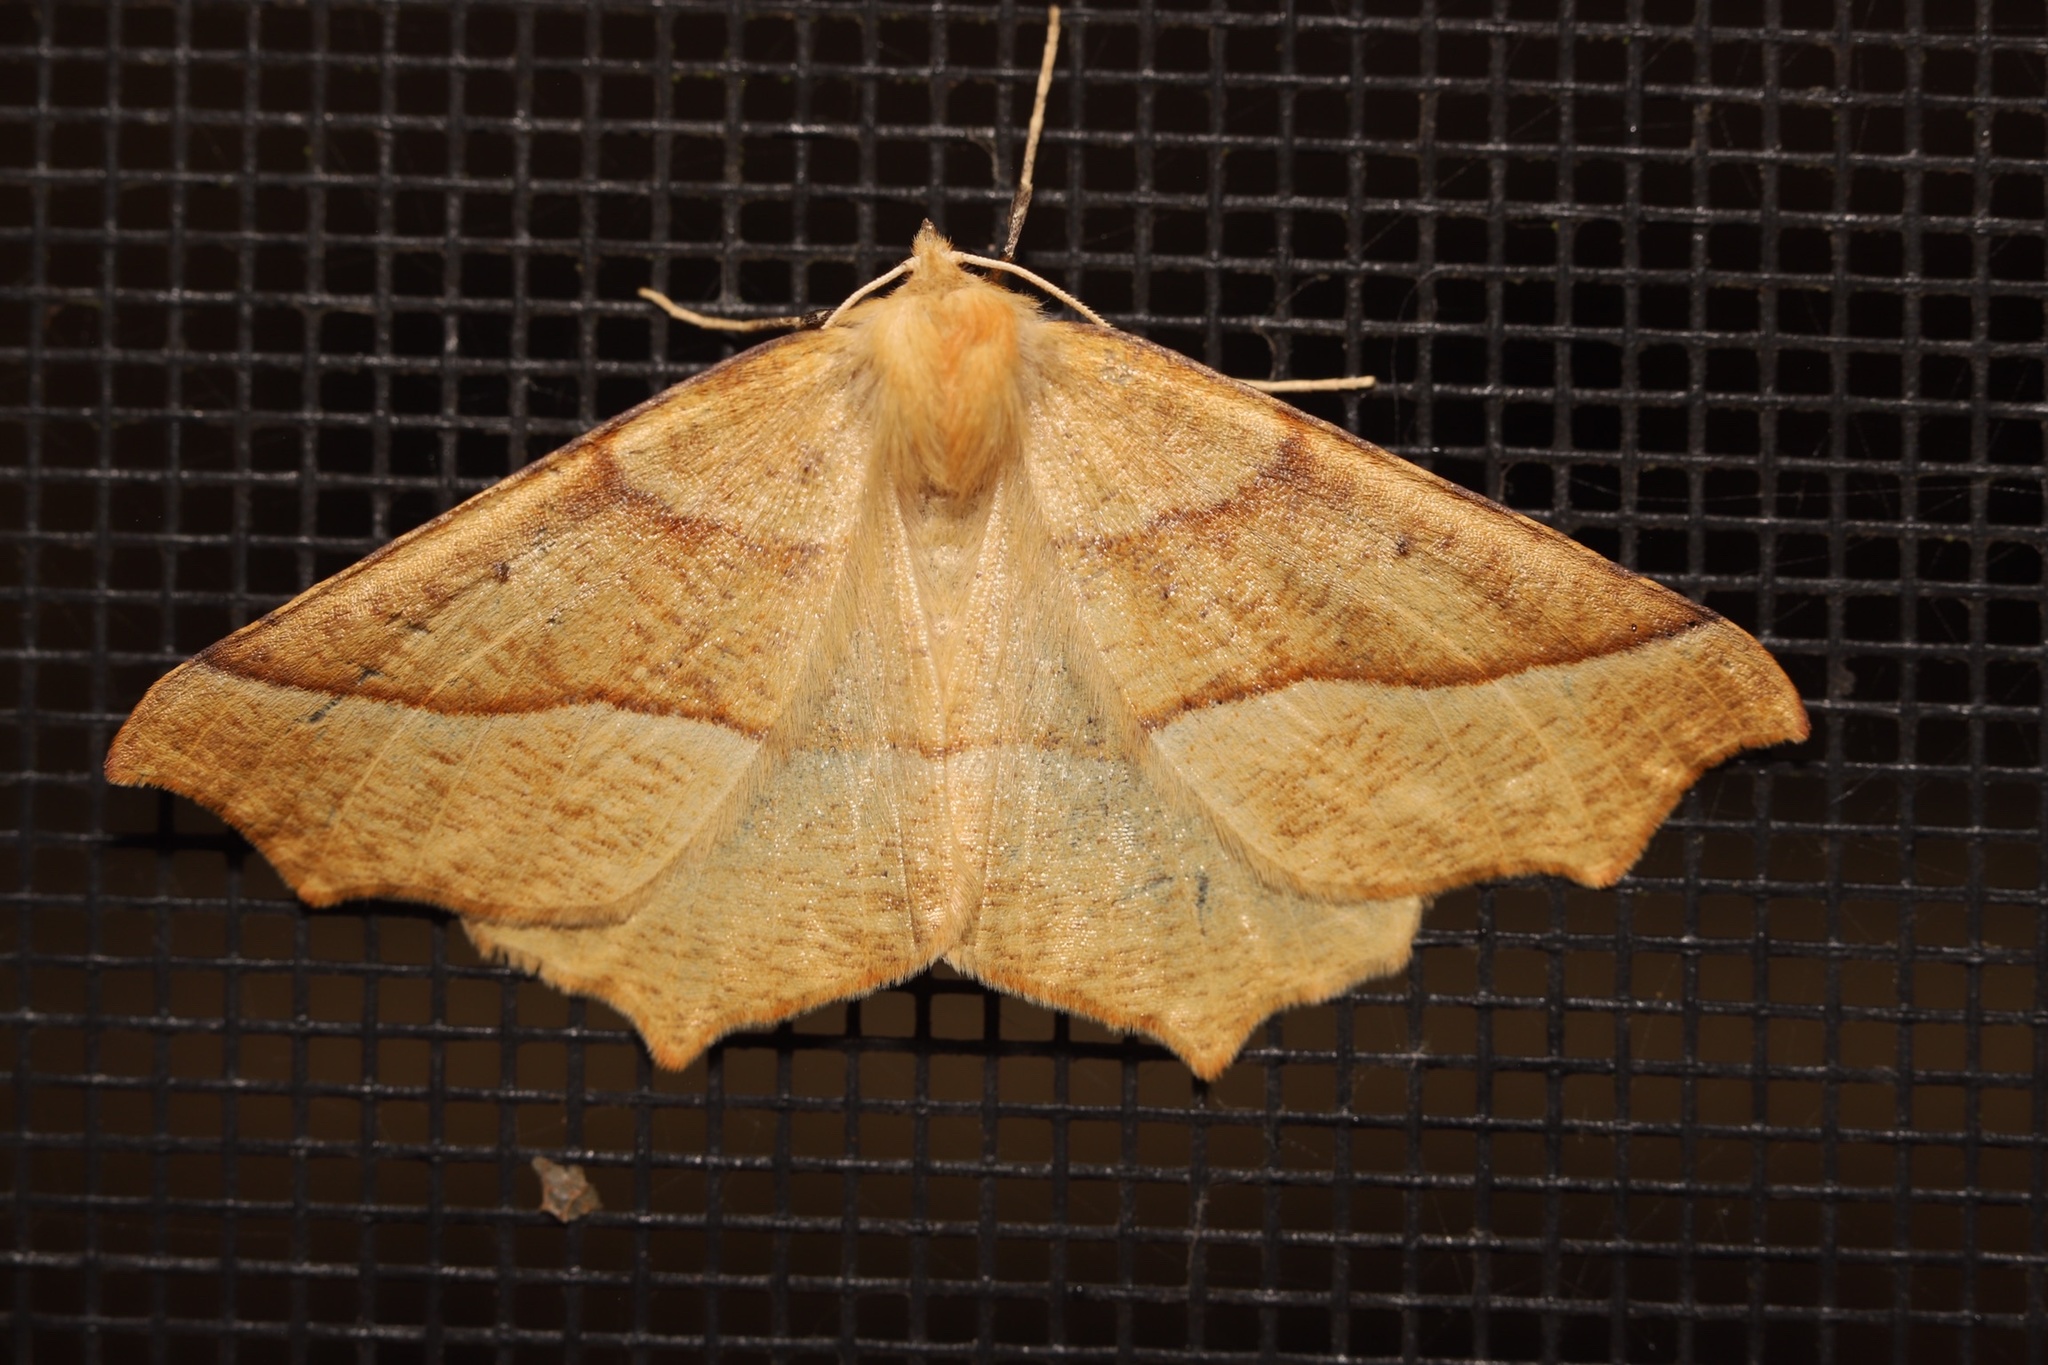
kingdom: Animalia
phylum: Arthropoda
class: Insecta
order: Lepidoptera
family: Geometridae
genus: Synaxis
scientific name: Synaxis jubararia
